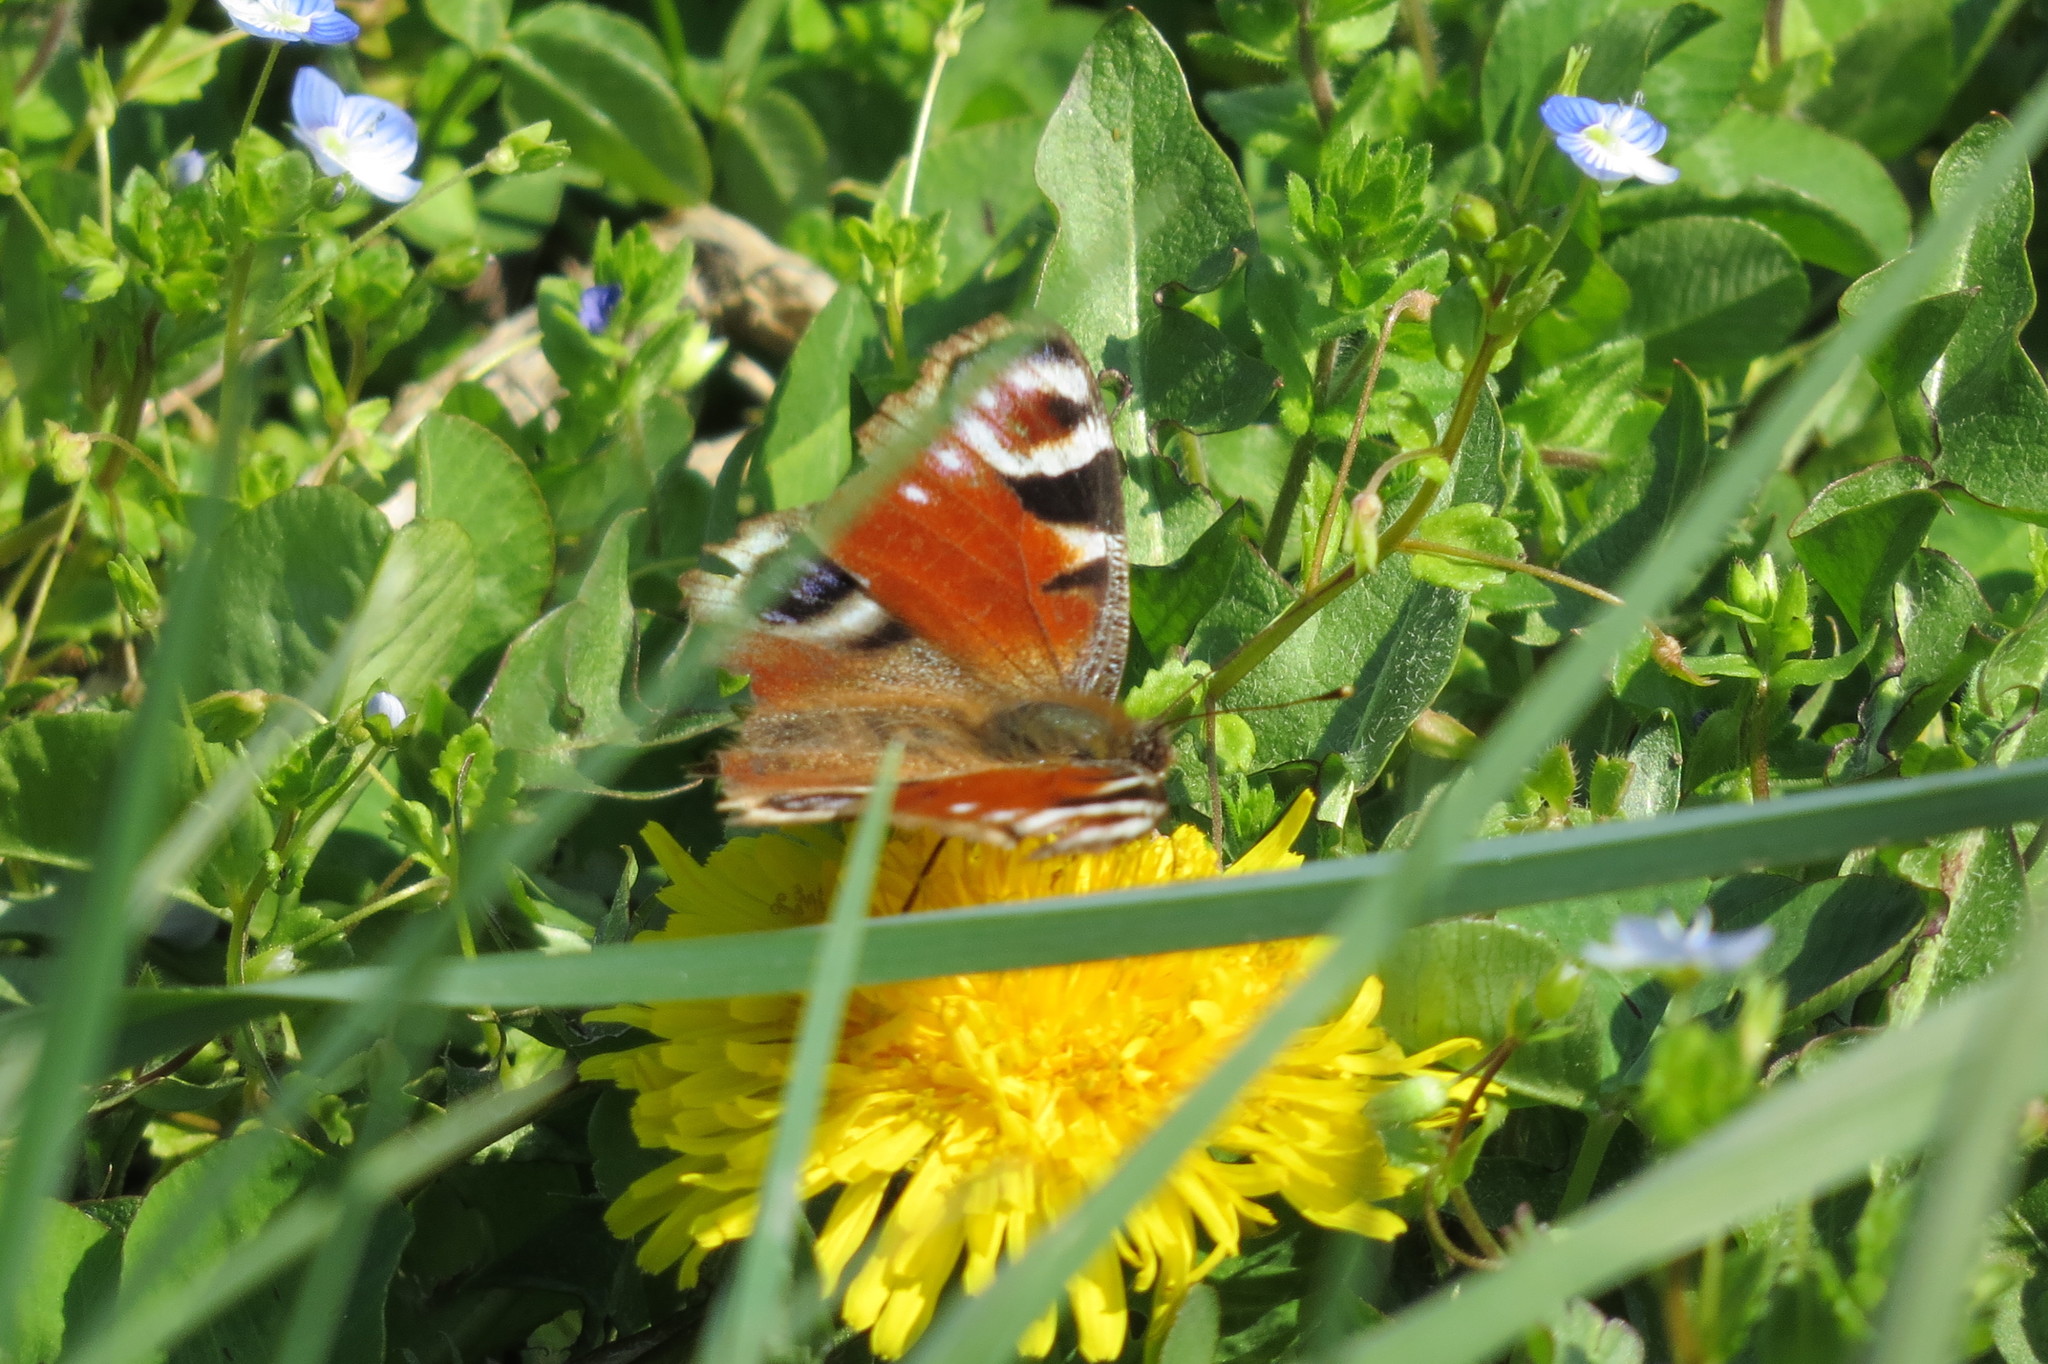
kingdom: Animalia
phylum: Arthropoda
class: Insecta
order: Lepidoptera
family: Nymphalidae
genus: Aglais
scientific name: Aglais io
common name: Peacock
